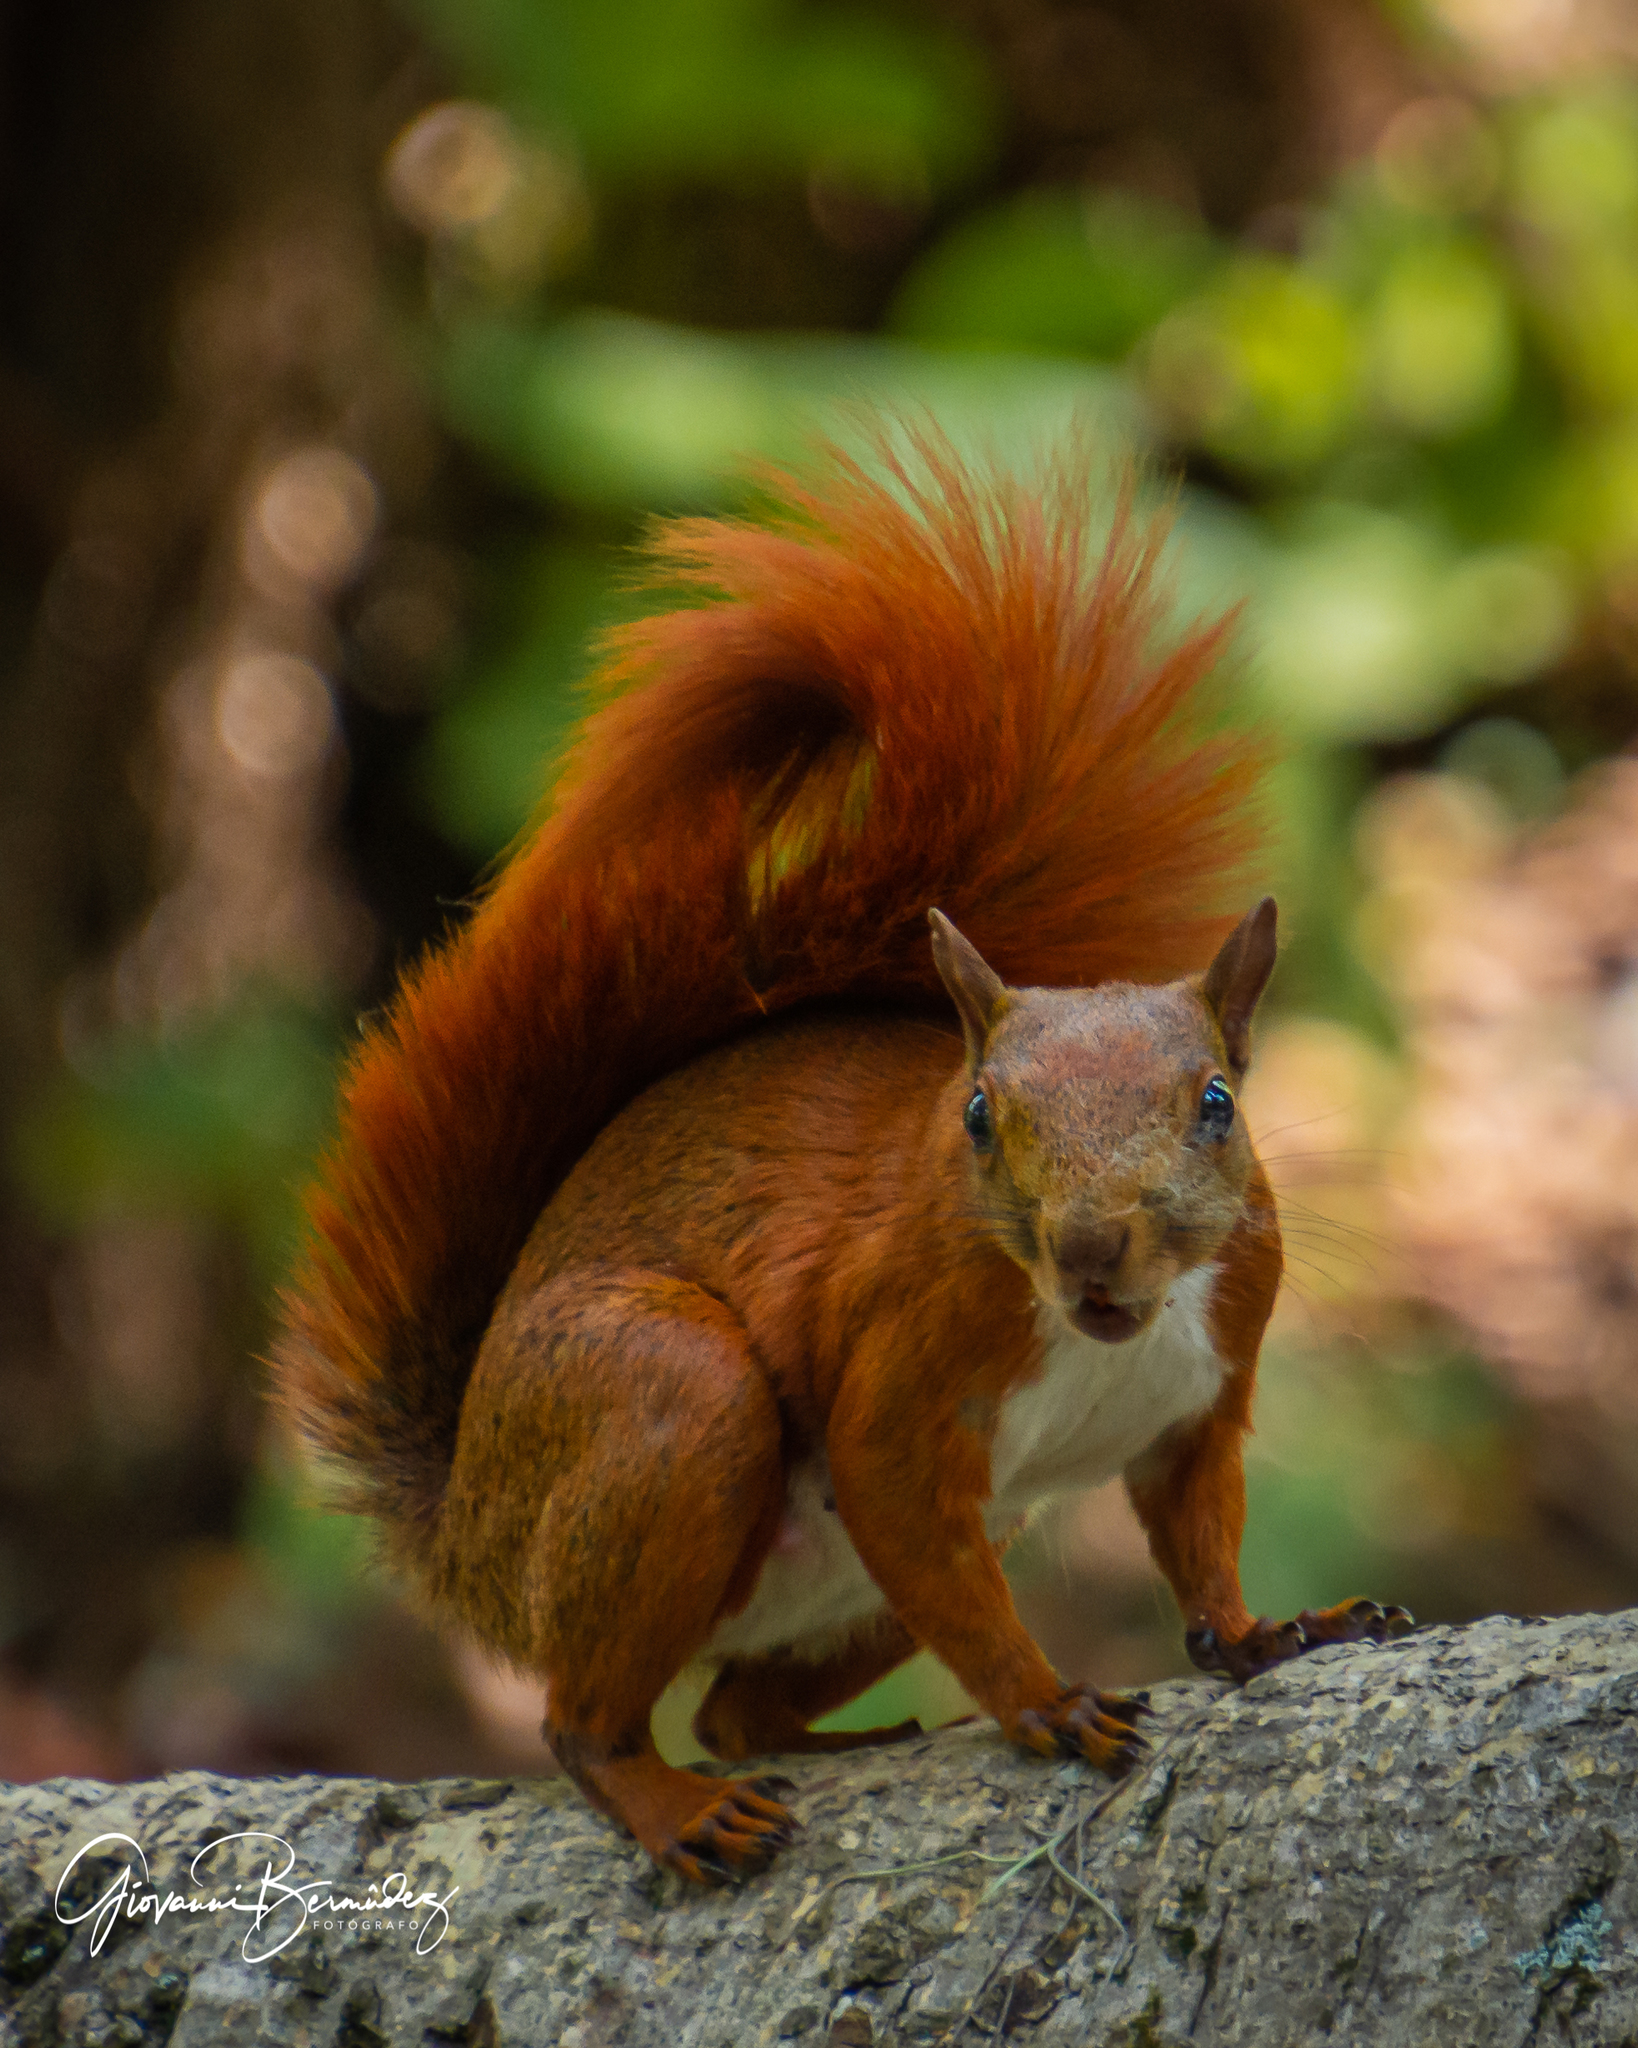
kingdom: Animalia
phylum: Chordata
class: Mammalia
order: Rodentia
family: Sciuridae
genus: Sciurus
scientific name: Sciurus granatensis
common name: Red-tailed squirrel
